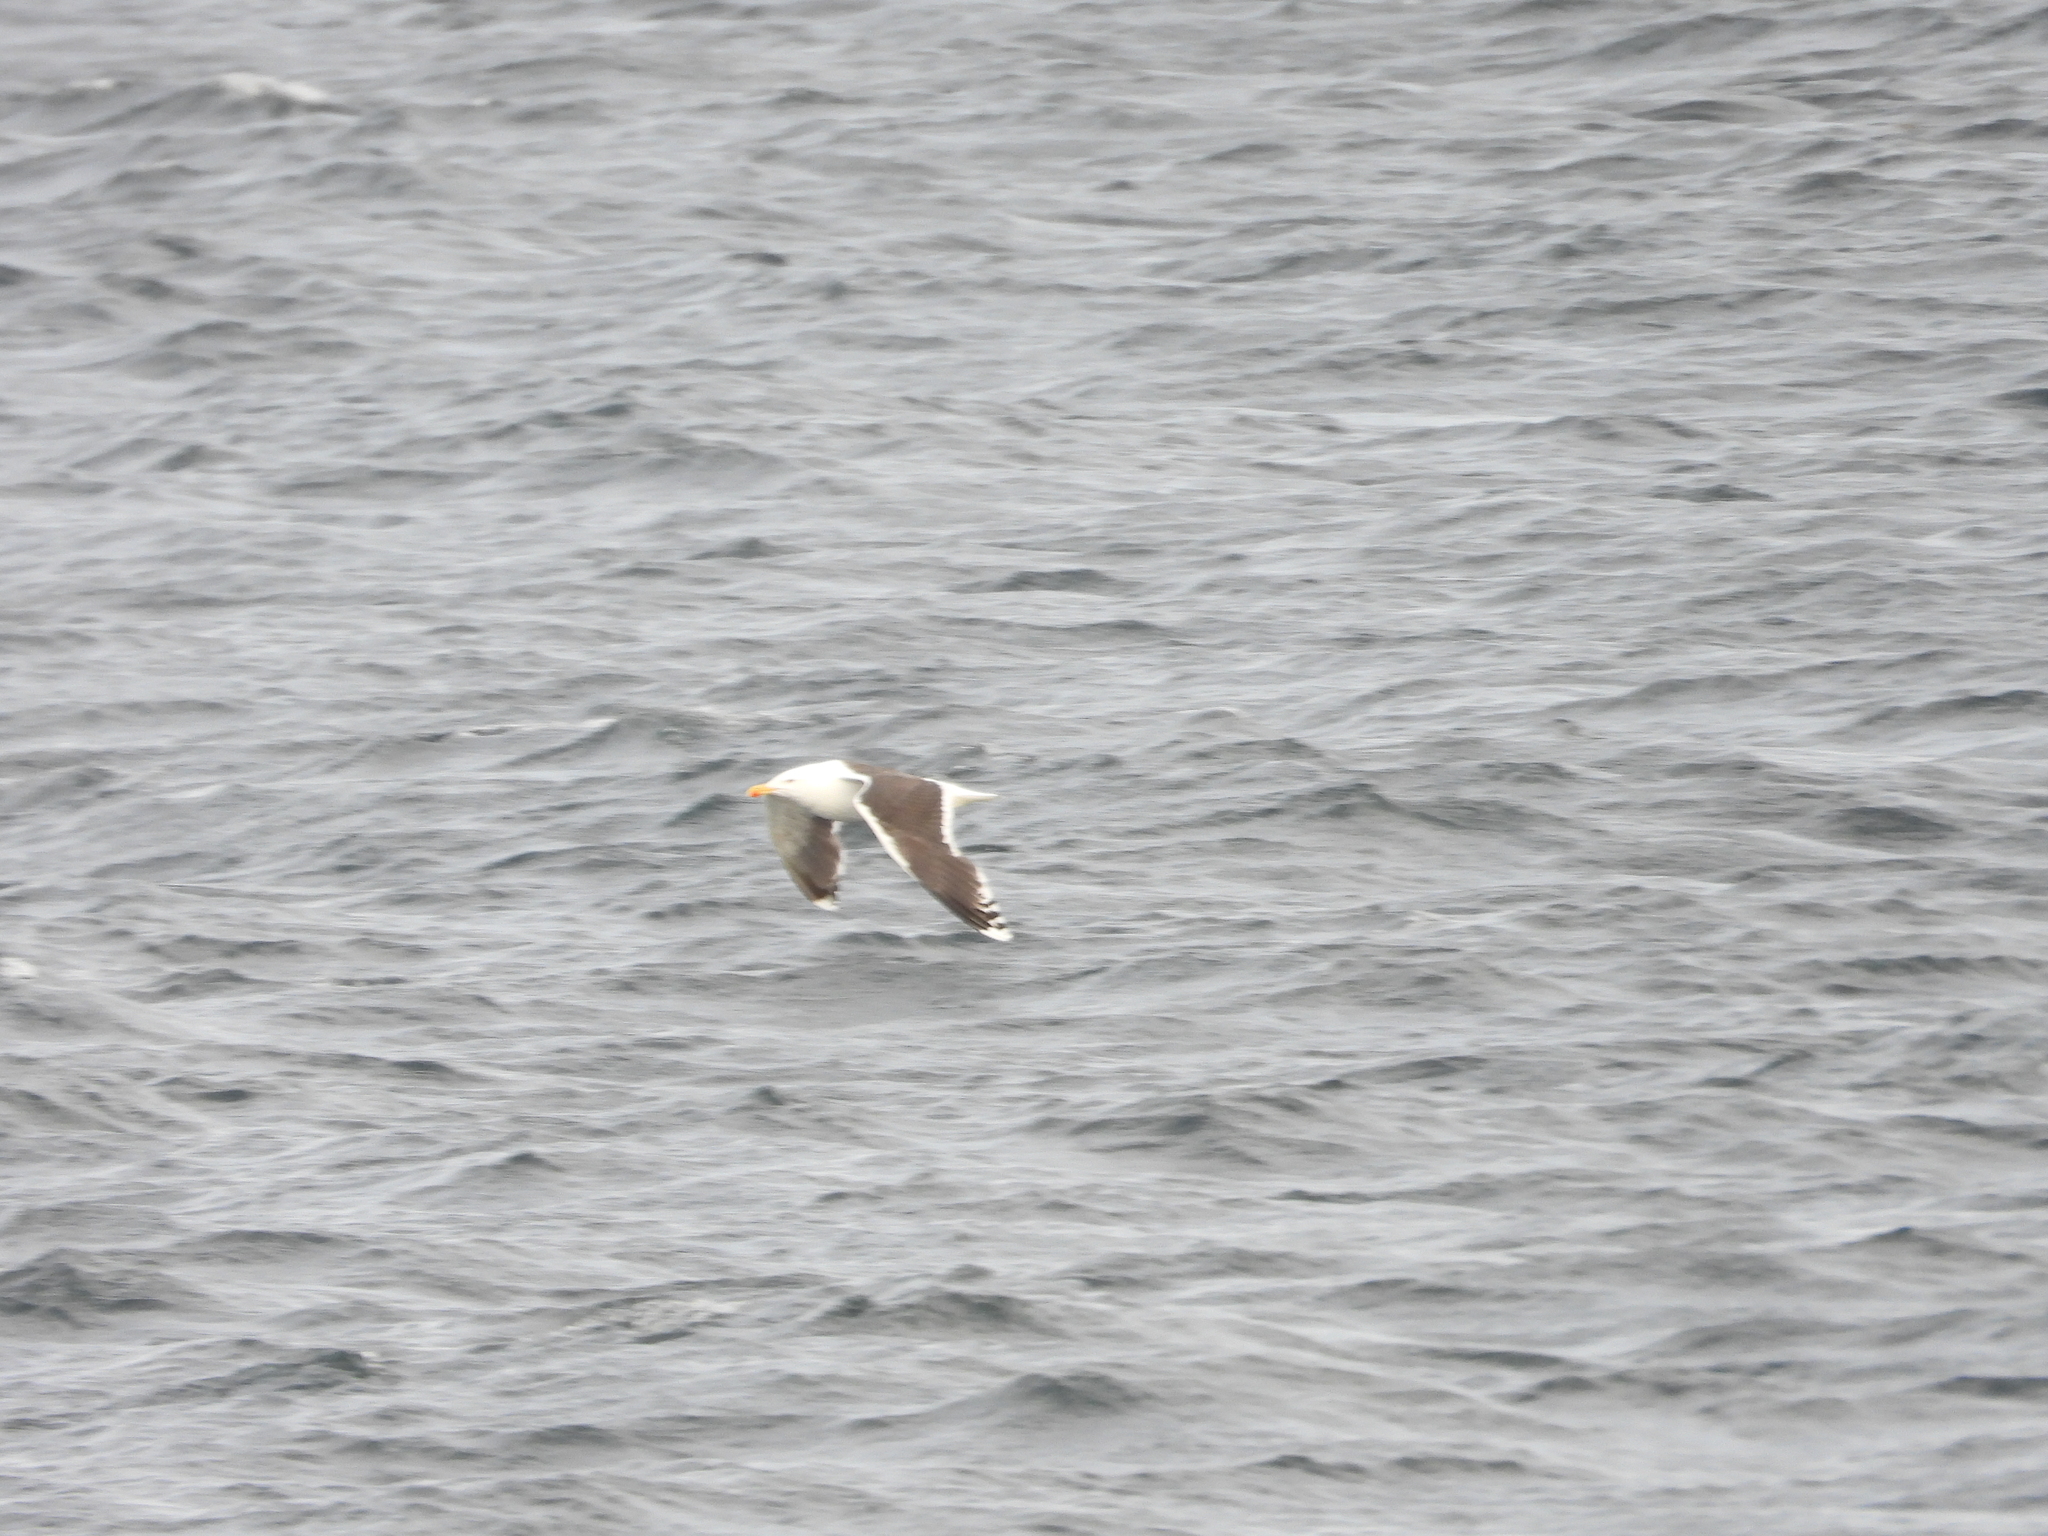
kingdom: Animalia
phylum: Chordata
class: Aves
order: Charadriiformes
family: Laridae
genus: Larus
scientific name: Larus marinus
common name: Great black-backed gull
